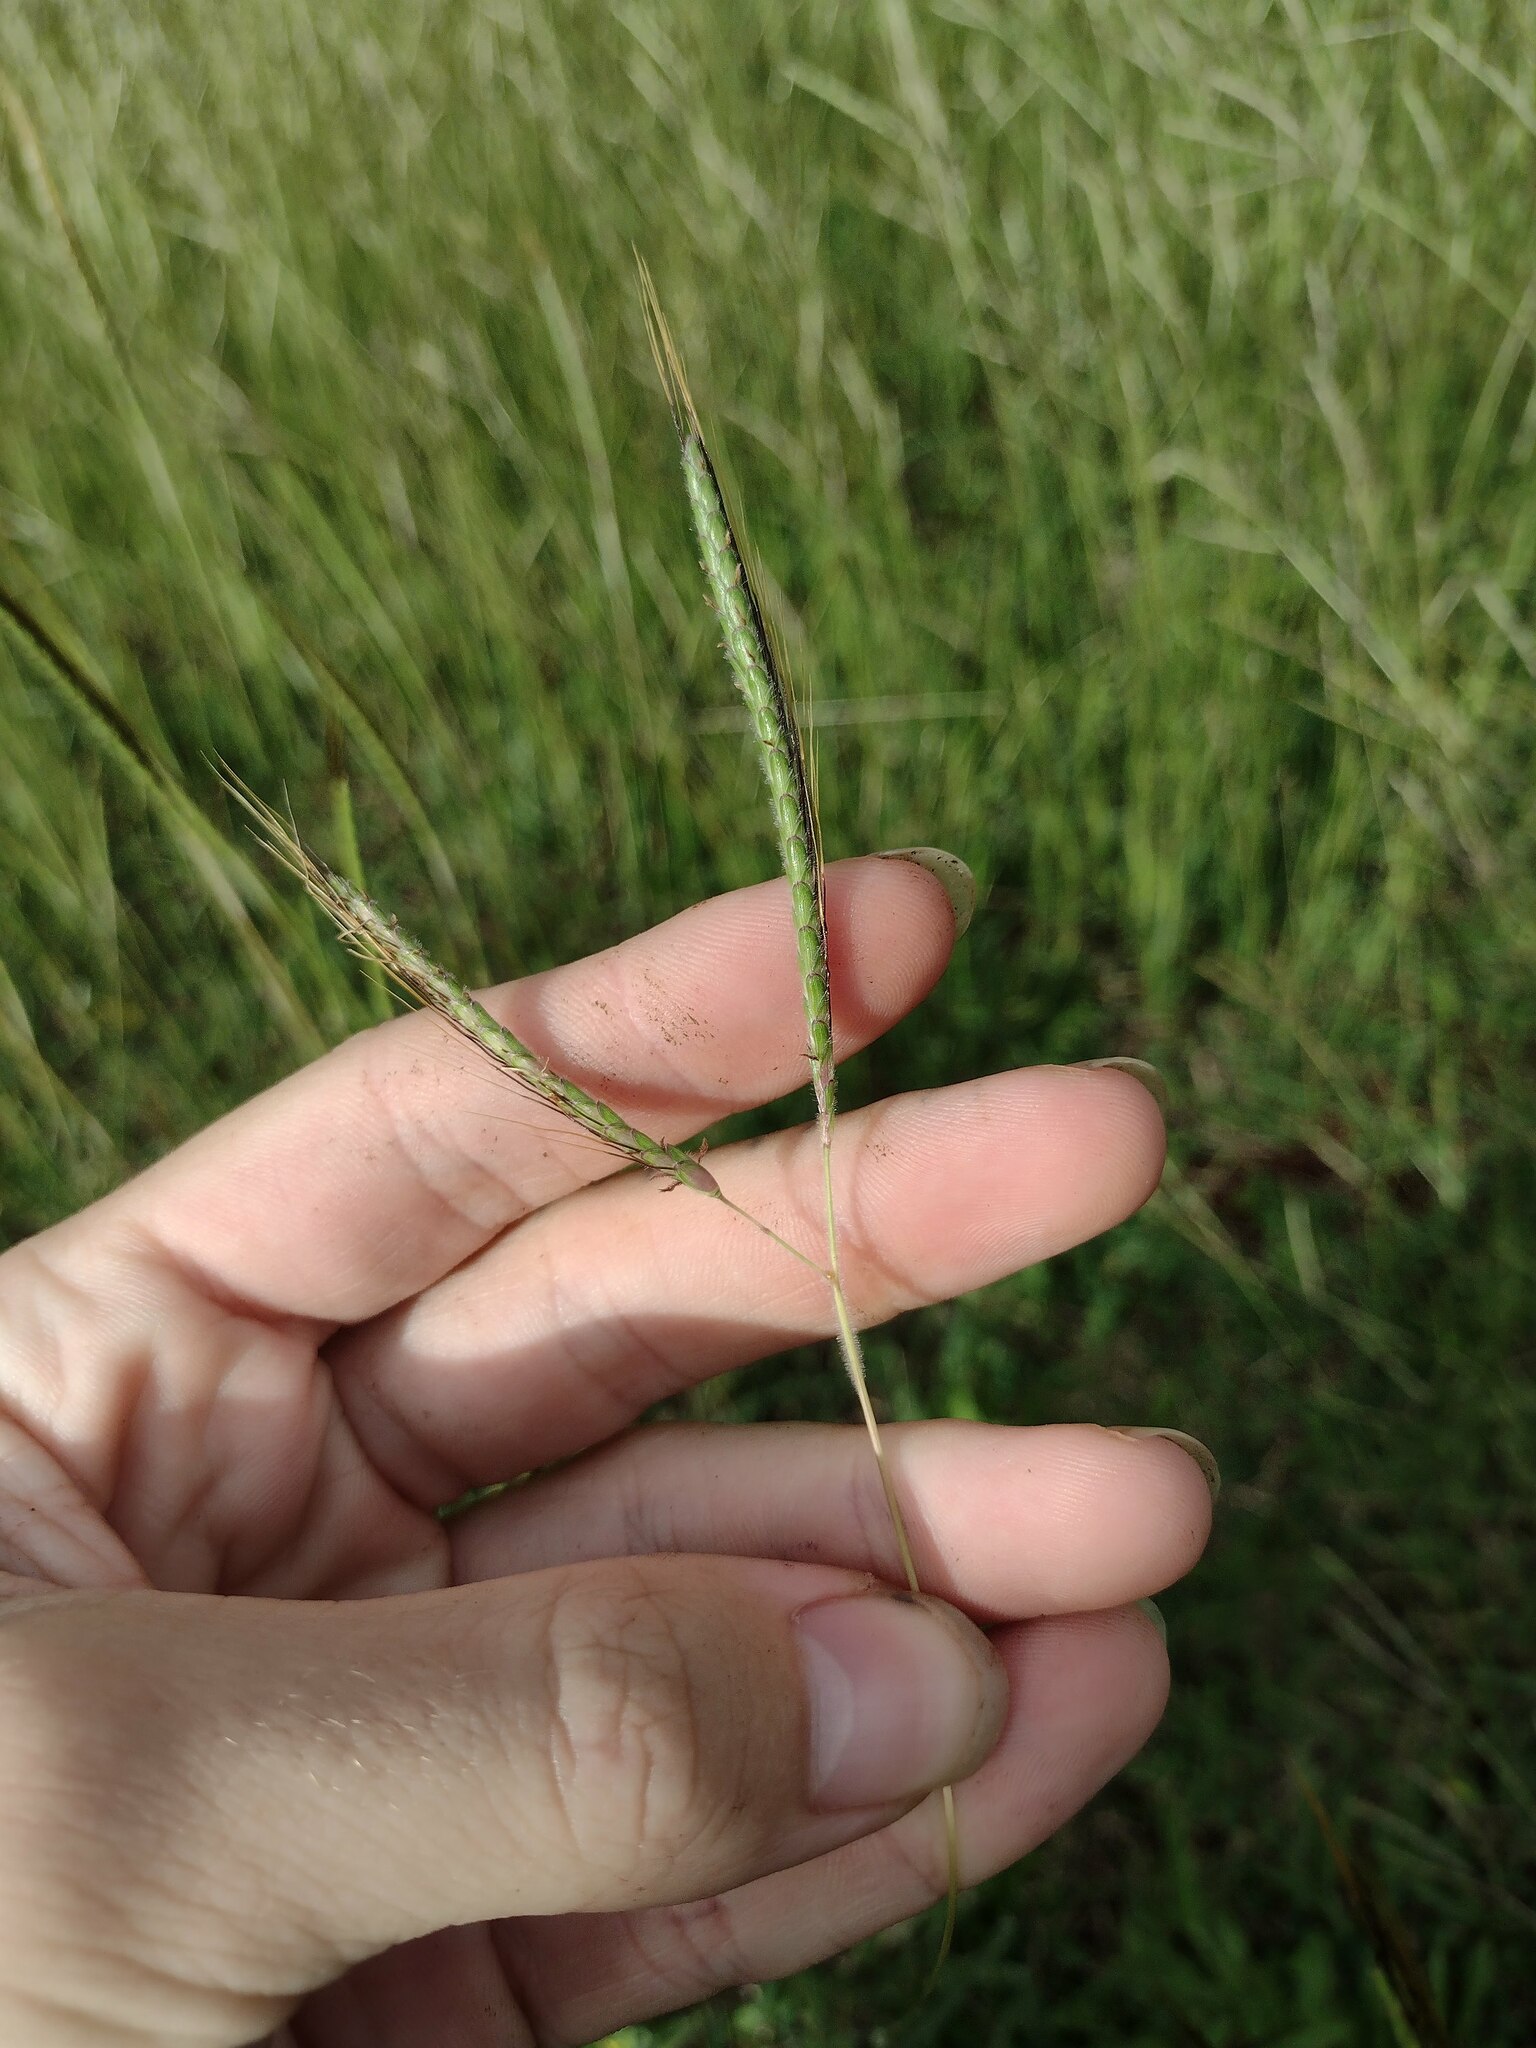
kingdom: Plantae
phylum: Tracheophyta
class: Liliopsida
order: Poales
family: Poaceae
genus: Dichanthium
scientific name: Dichanthium aristatum
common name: Angleton bluestem
